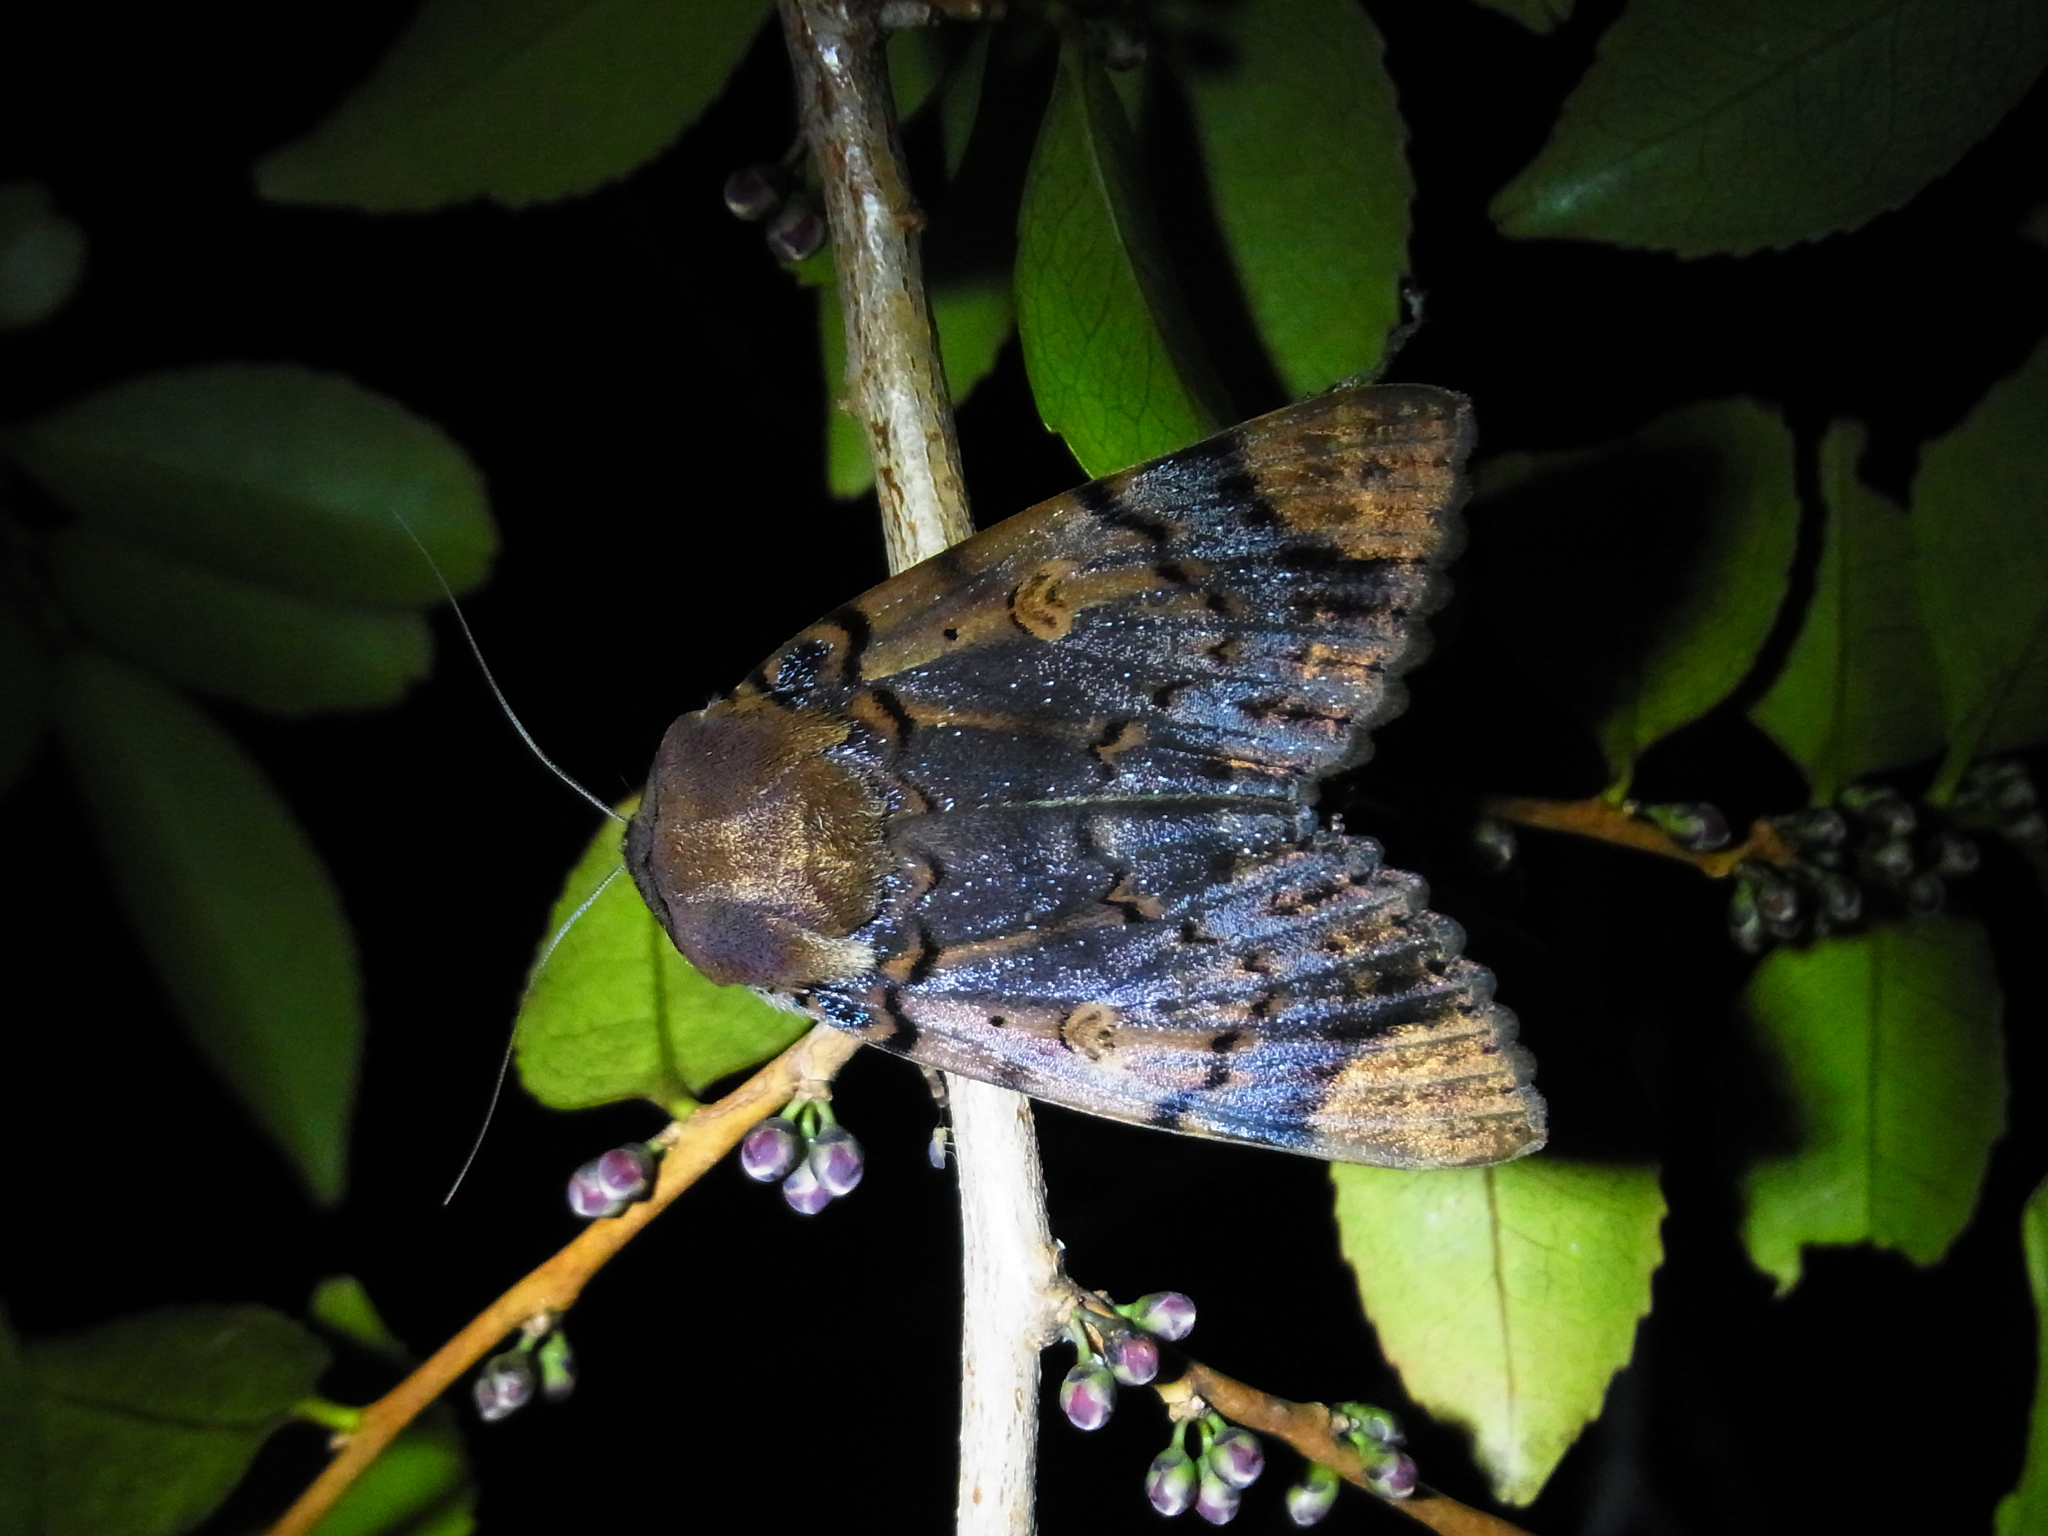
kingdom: Animalia
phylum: Arthropoda
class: Insecta
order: Lepidoptera
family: Erebidae
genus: Arcte
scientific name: Arcte coerula
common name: Ramie moth
